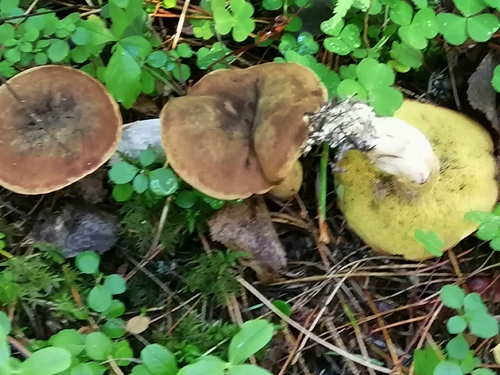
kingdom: Fungi
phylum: Basidiomycota
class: Agaricomycetes
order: Boletales
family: Boletaceae
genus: Imleria
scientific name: Imleria badia
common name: Bay bolete
